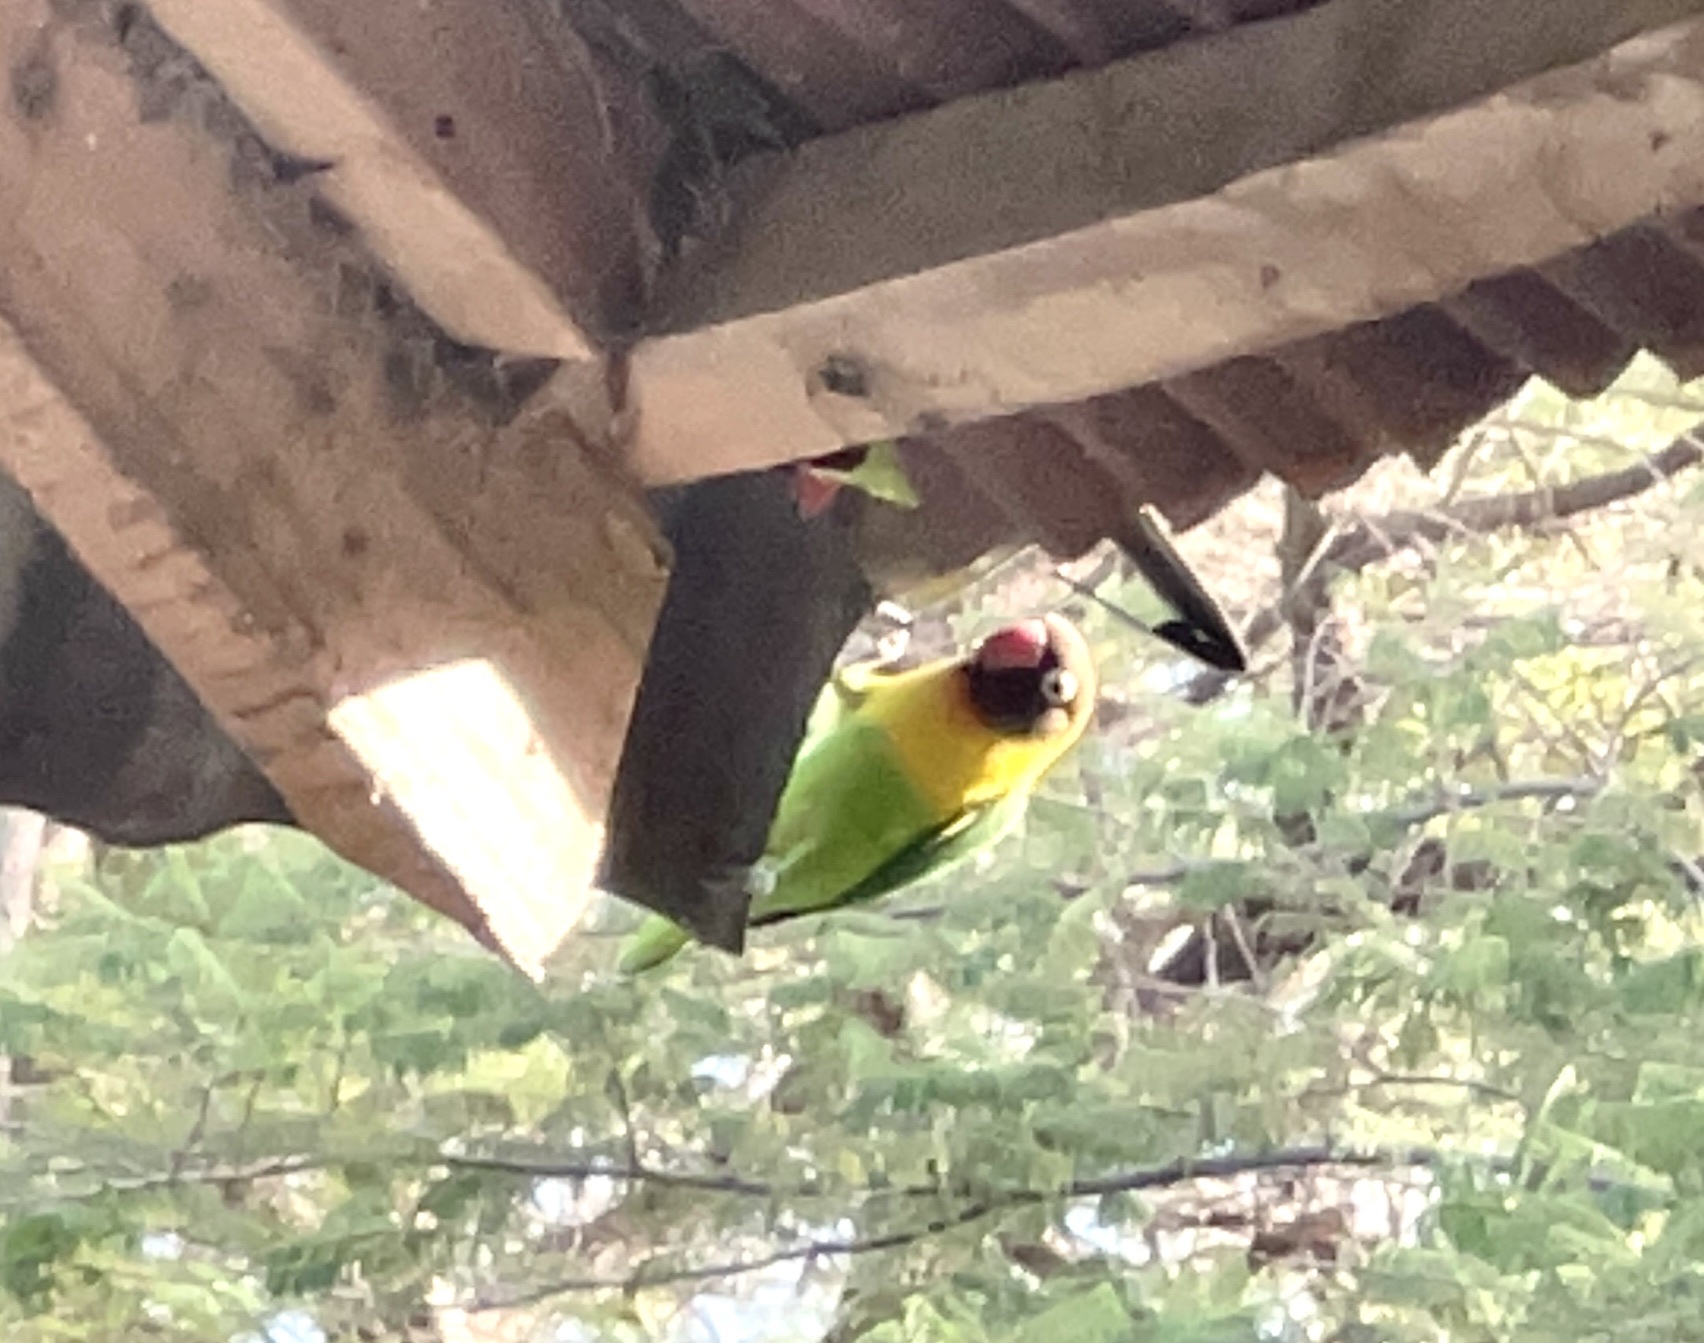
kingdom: Animalia
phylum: Chordata
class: Aves
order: Psittaciformes
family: Psittacidae
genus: Agapornis
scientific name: Agapornis personatus
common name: Yellow-collared lovebird
